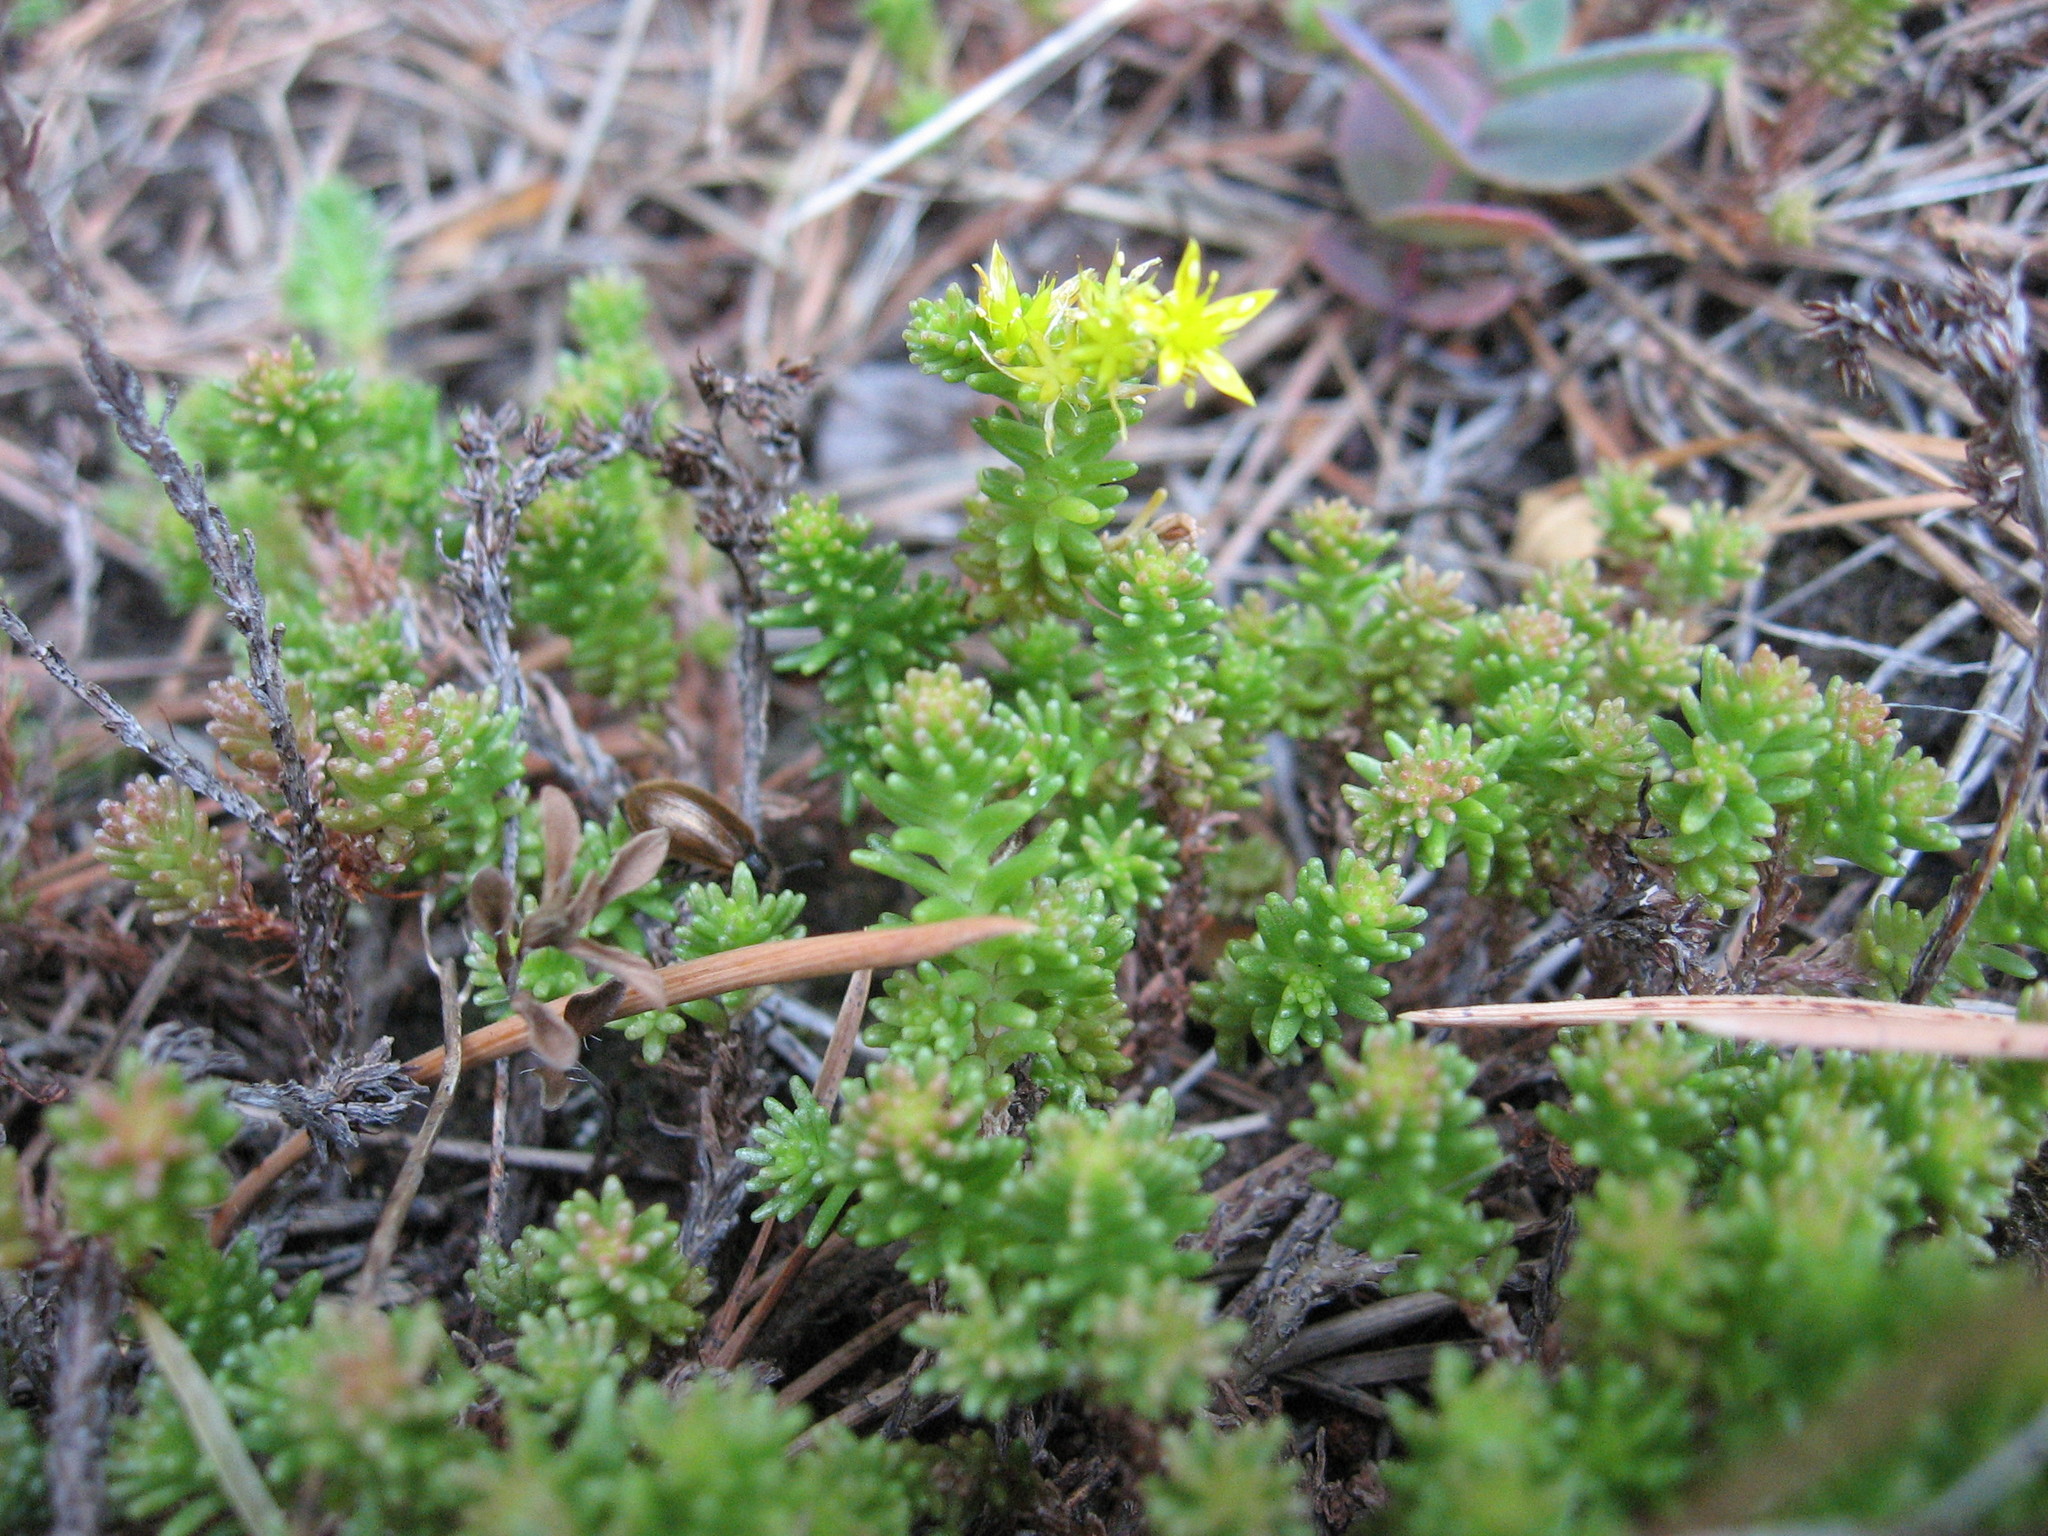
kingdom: Plantae
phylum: Tracheophyta
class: Magnoliopsida
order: Saxifragales
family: Crassulaceae
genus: Sedum
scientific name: Sedum sexangulare
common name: Tasteless stonecrop
